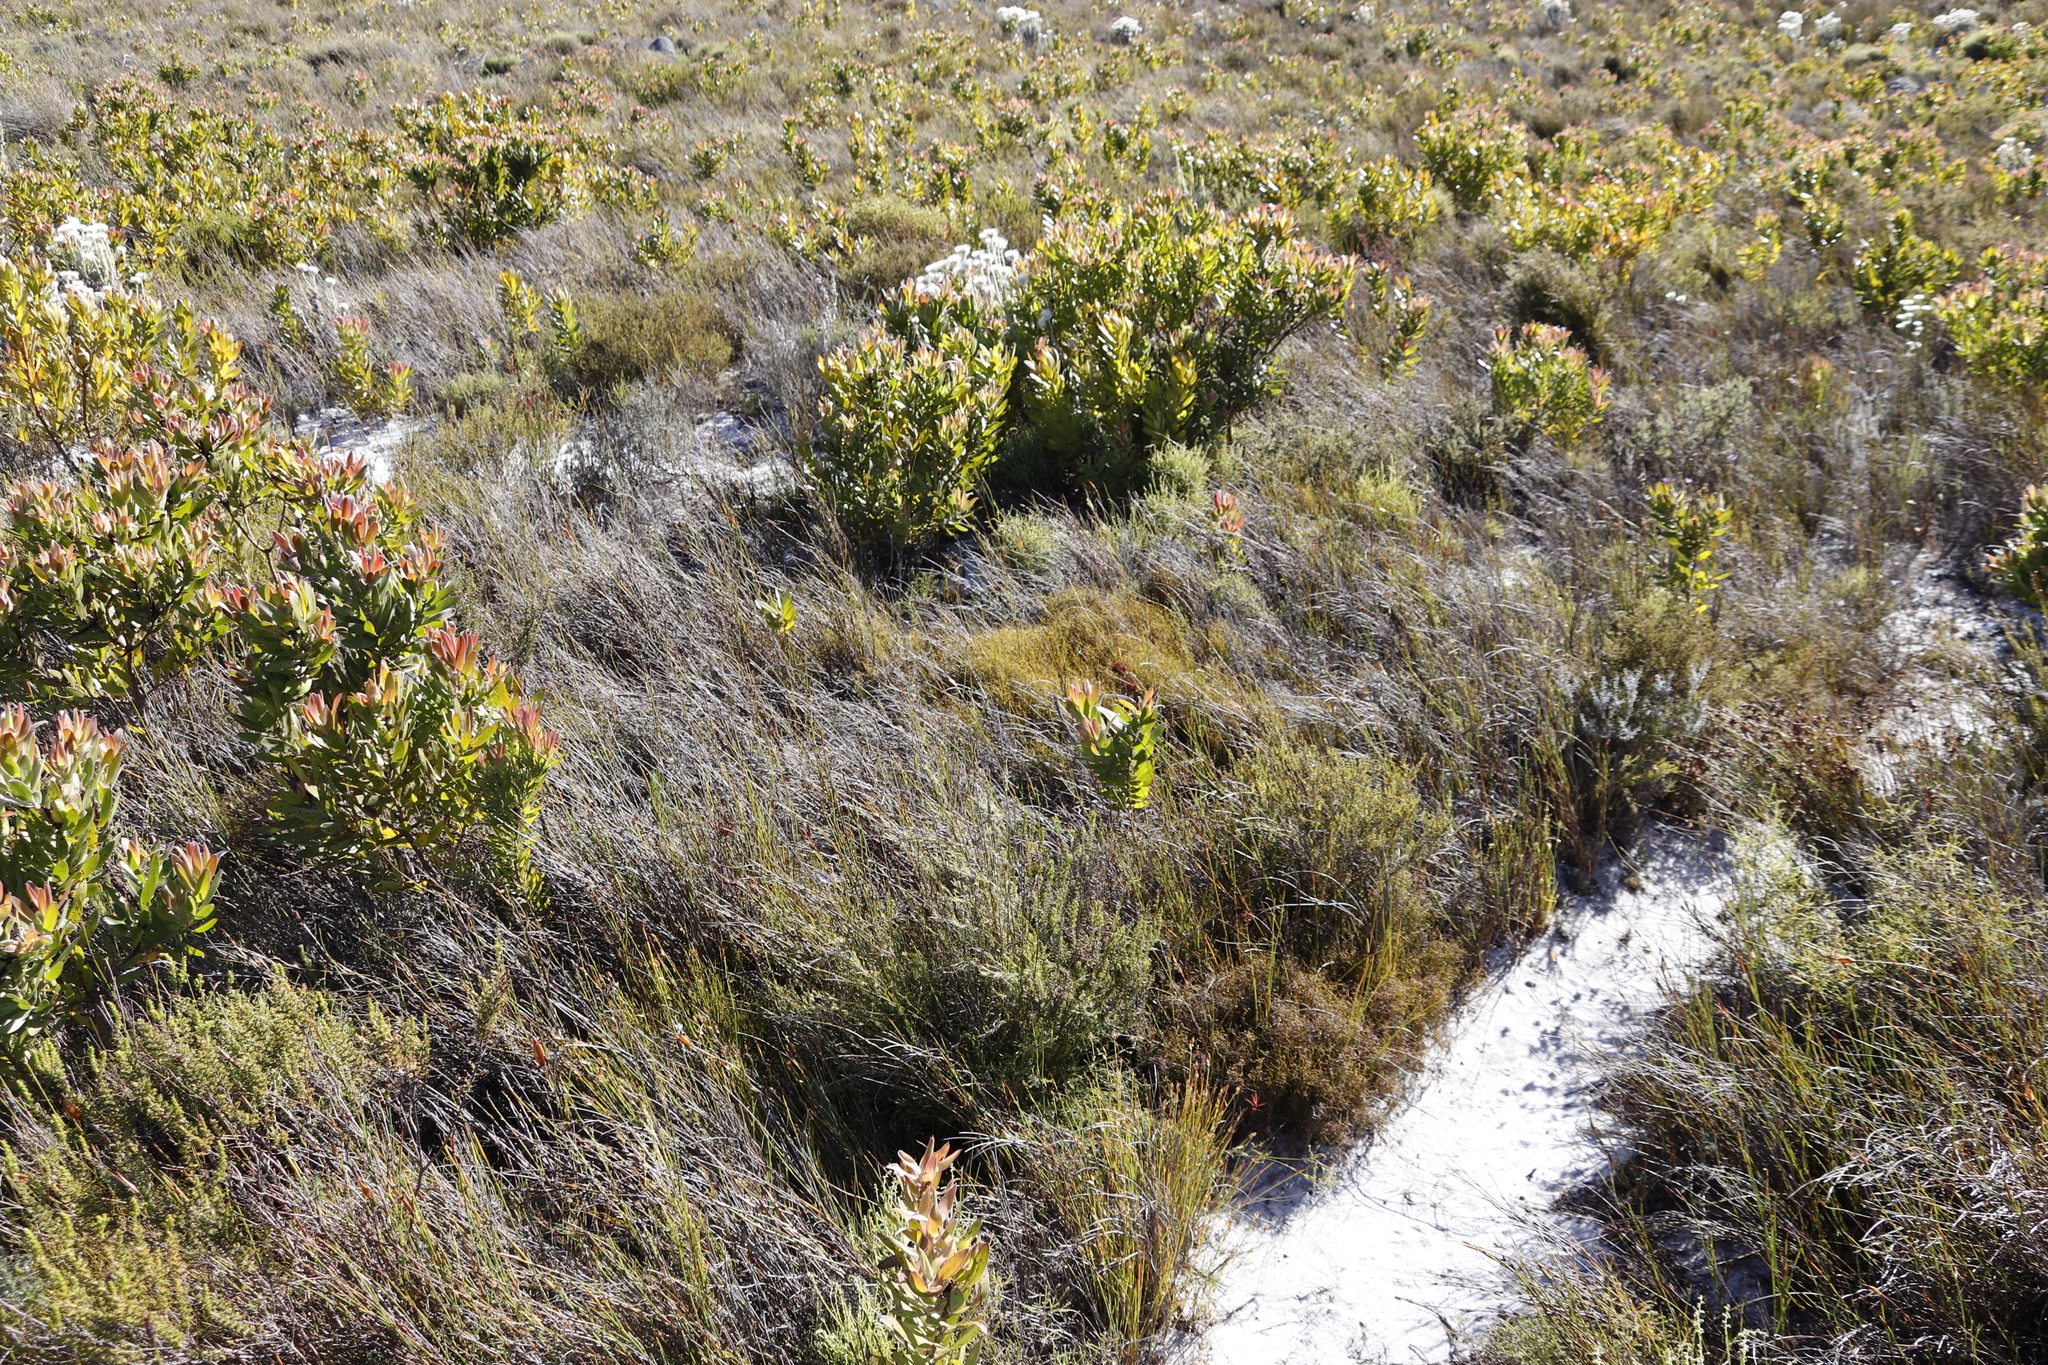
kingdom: Plantae
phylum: Tracheophyta
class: Magnoliopsida
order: Proteales
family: Proteaceae
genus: Leucadendron
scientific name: Leucadendron laureolum
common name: Golden sunshinebush
